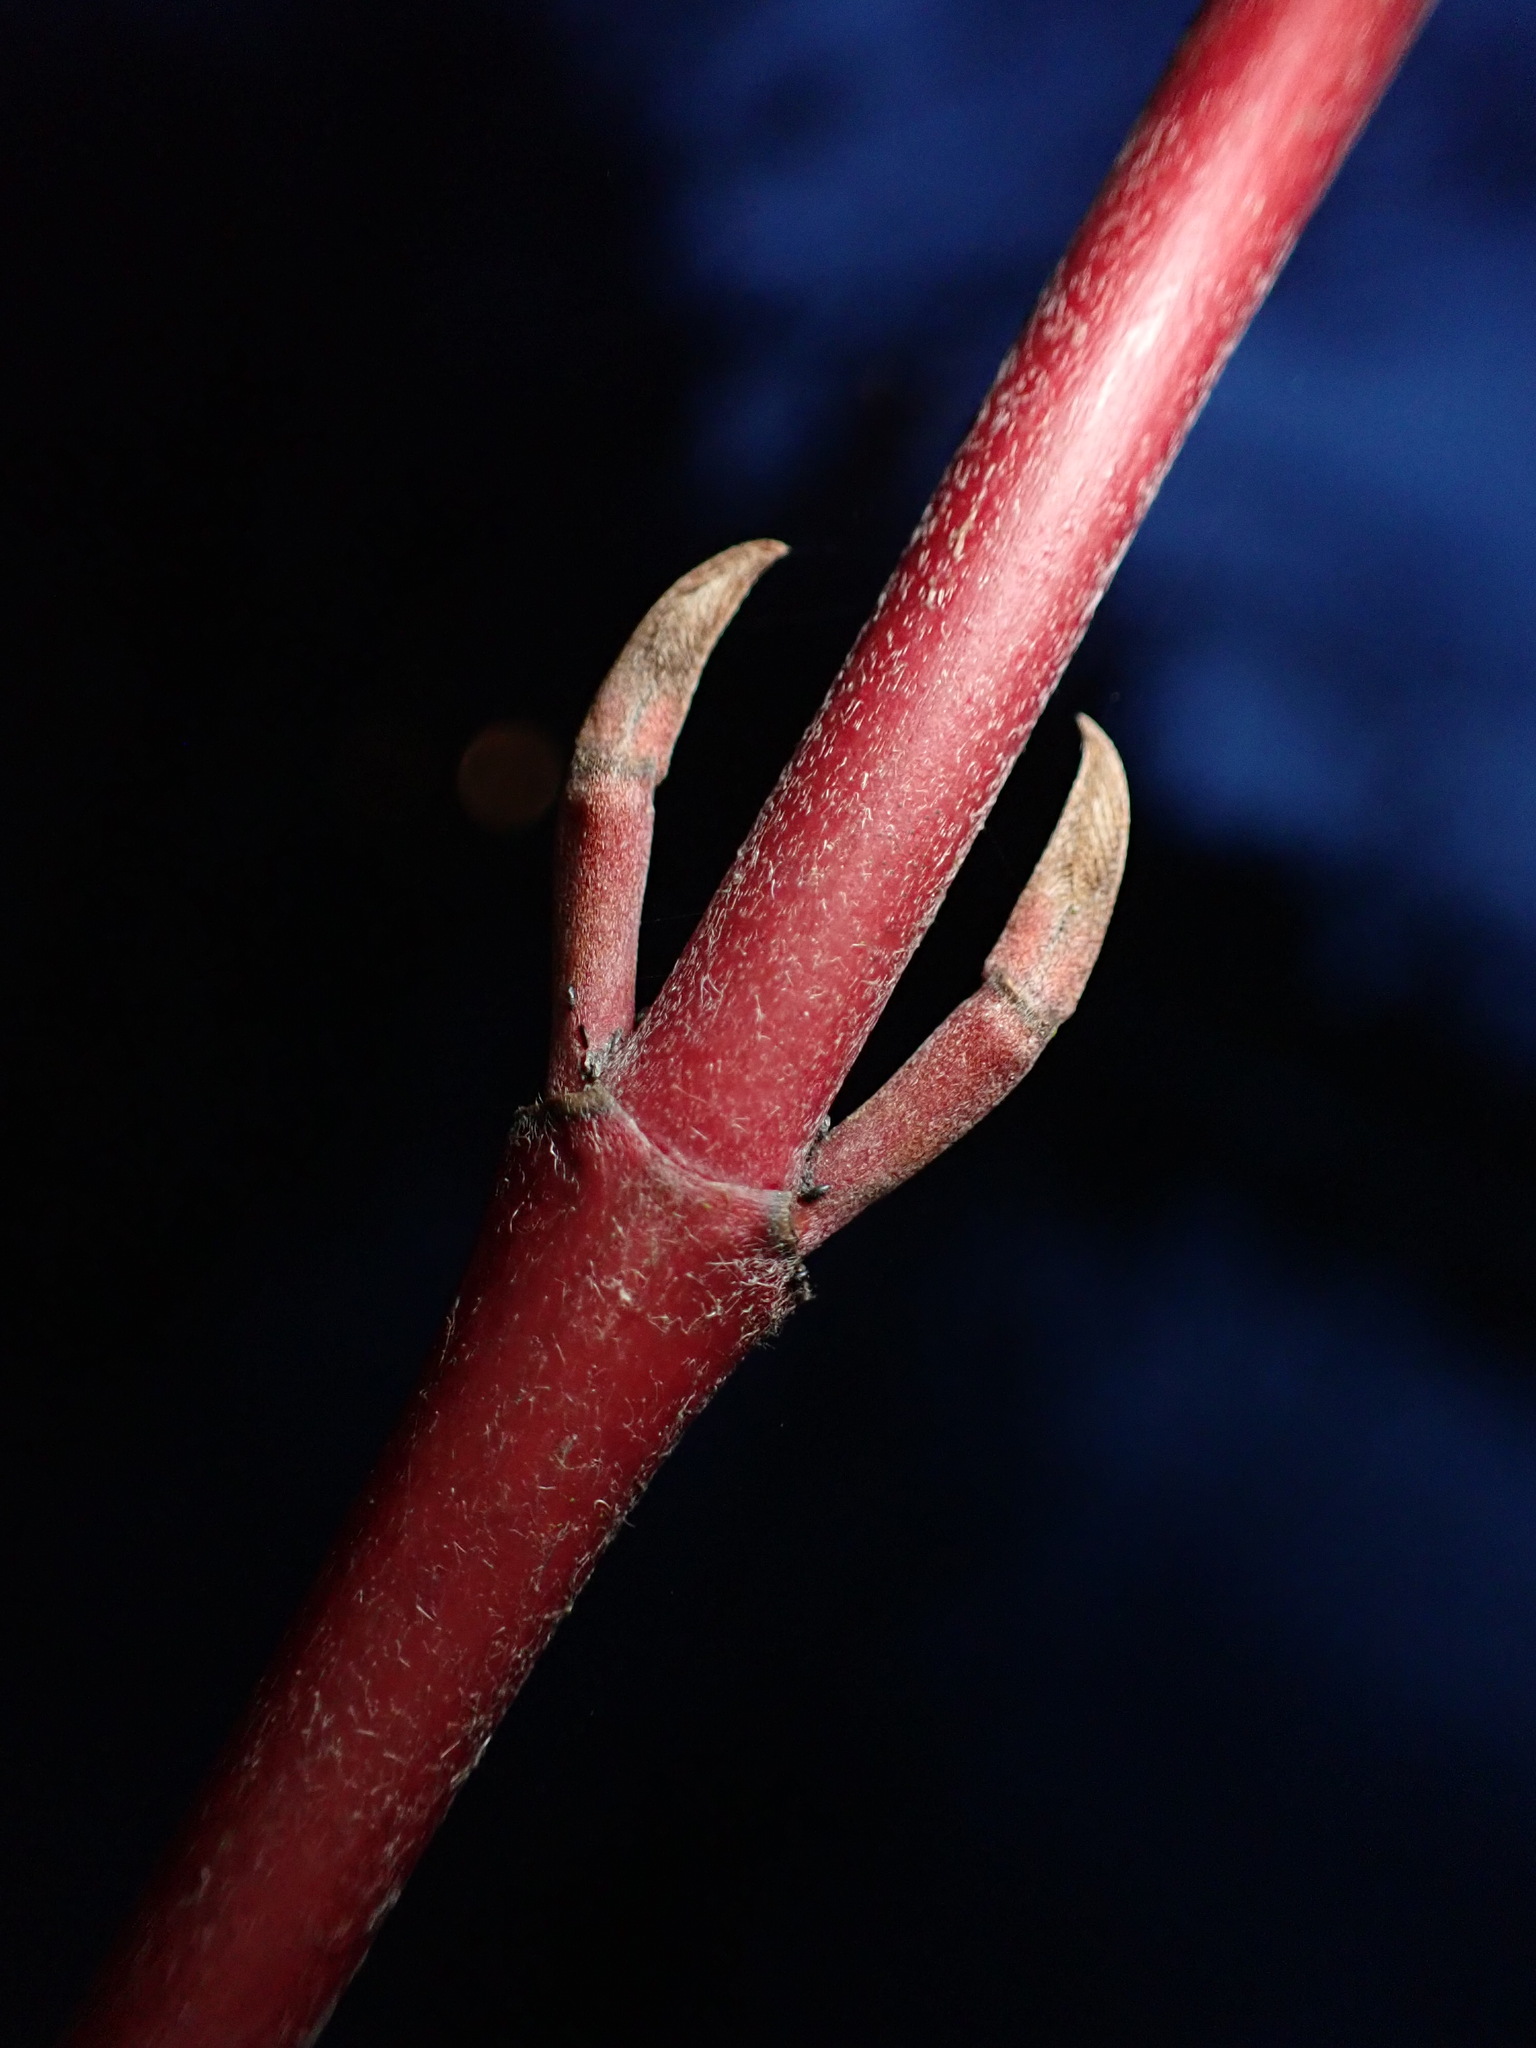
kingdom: Plantae
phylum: Tracheophyta
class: Magnoliopsida
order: Cornales
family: Cornaceae
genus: Cornus
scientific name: Cornus sericea
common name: Red-osier dogwood
